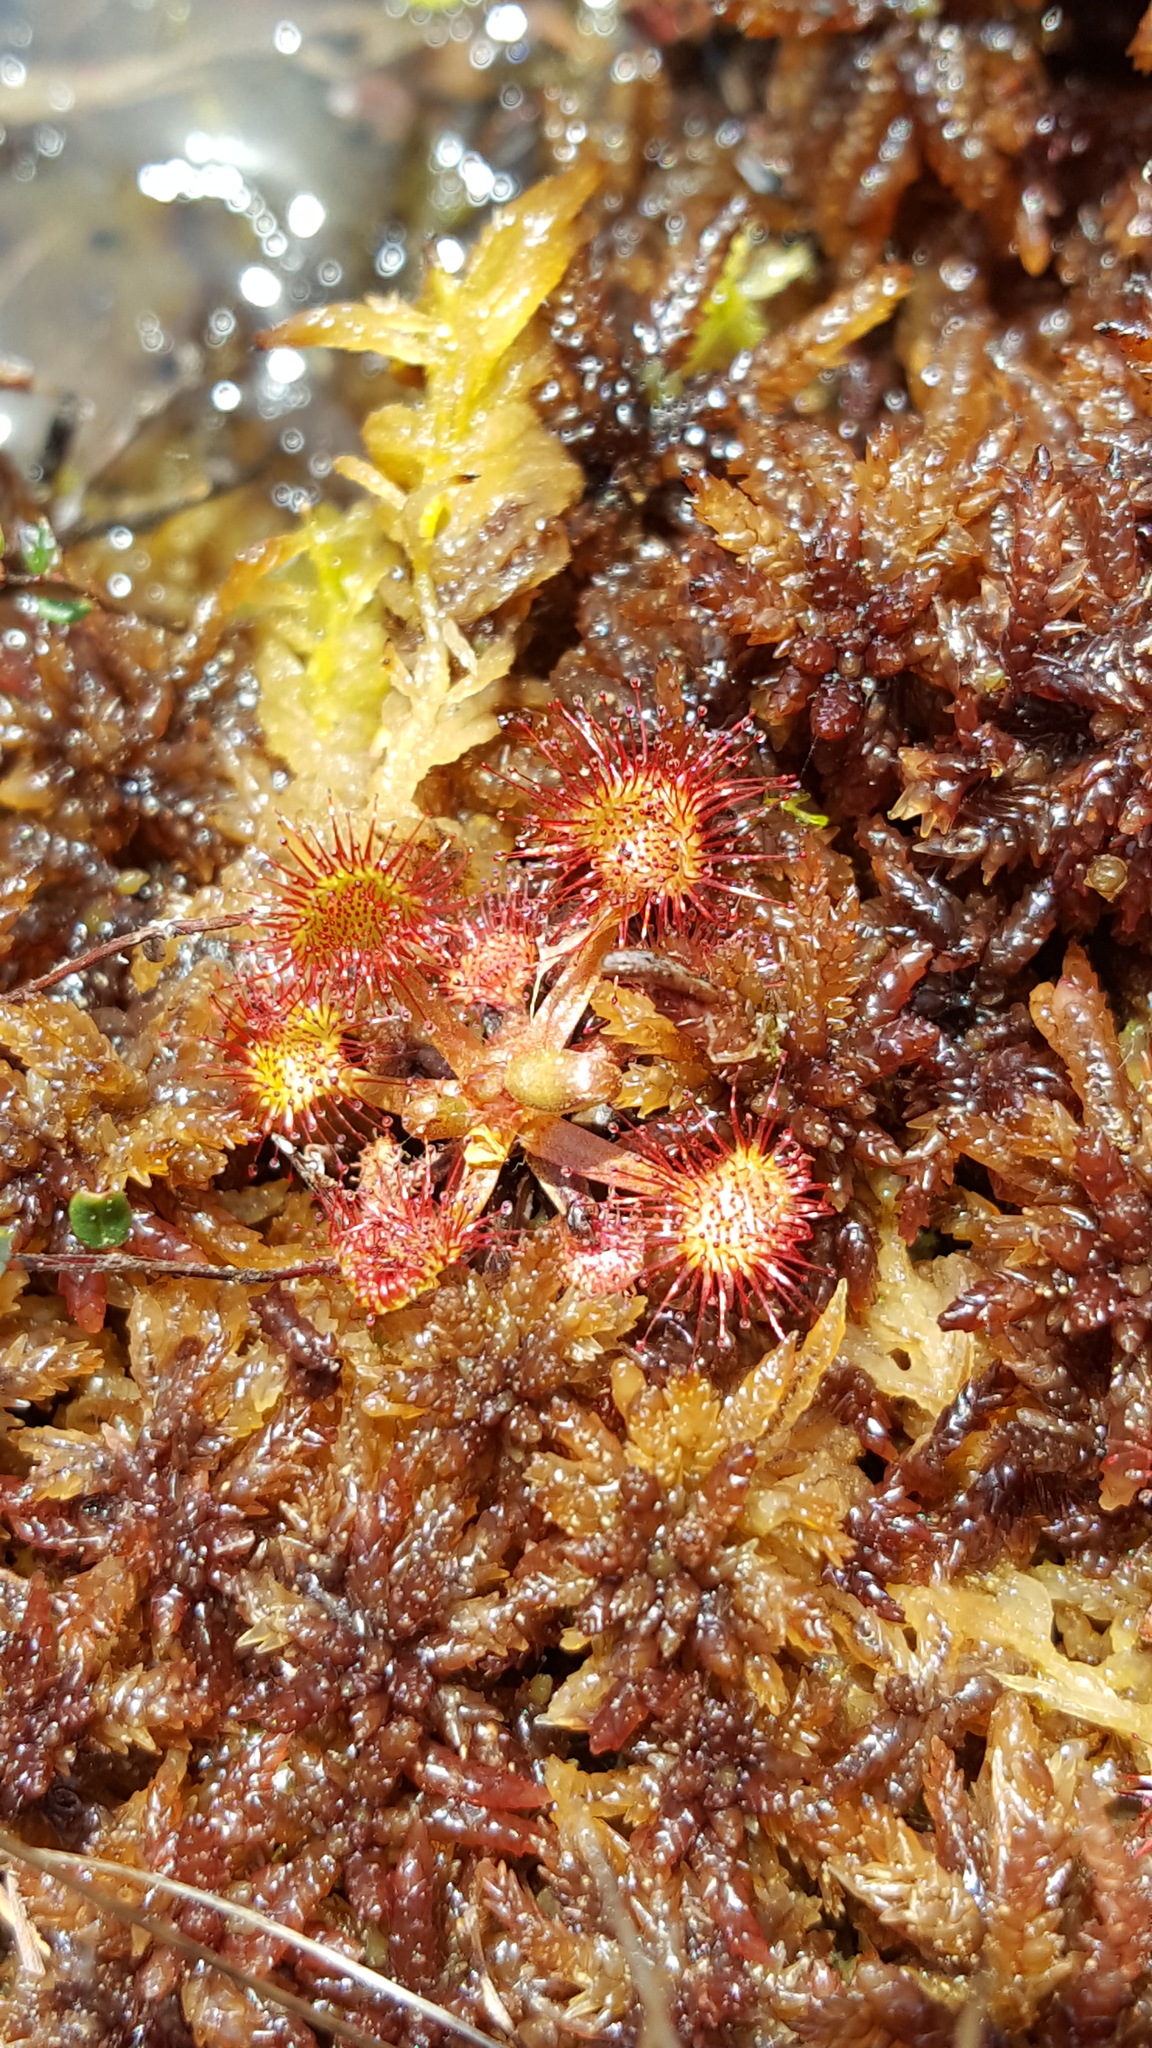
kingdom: Plantae
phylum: Tracheophyta
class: Magnoliopsida
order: Caryophyllales
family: Droseraceae
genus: Drosera
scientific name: Drosera rotundifolia
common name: Round-leaved sundew
